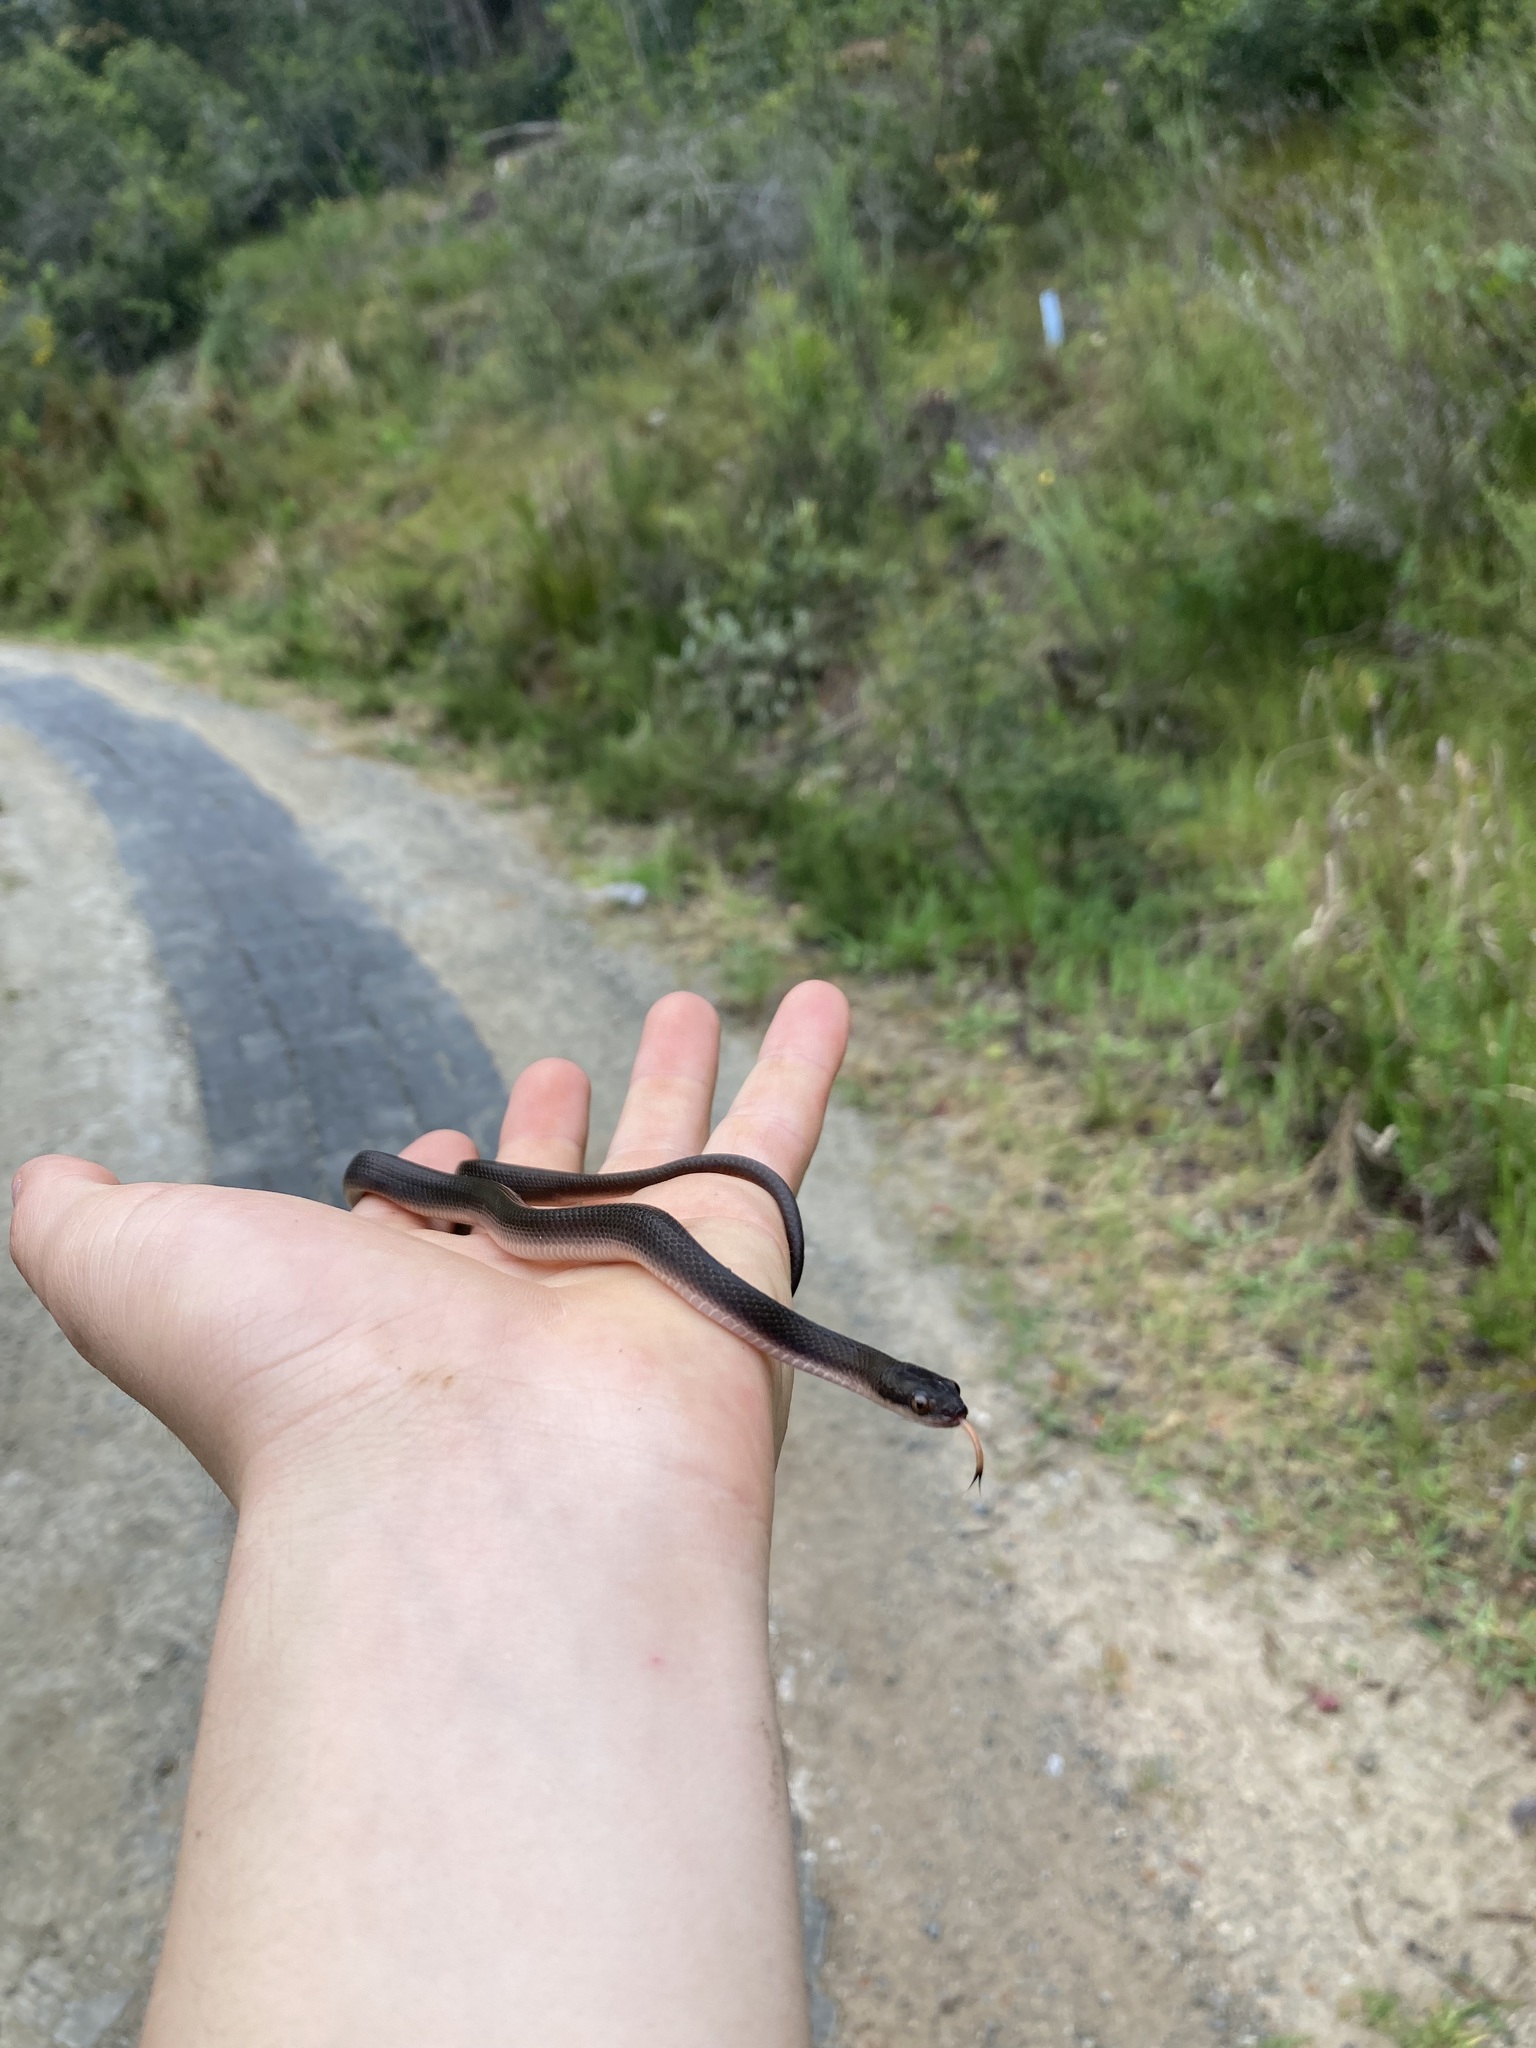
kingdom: Animalia
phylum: Chordata
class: Squamata
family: Lamprophiidae
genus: Lycodonomorphus
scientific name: Lycodonomorphus rufulus
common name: Brown water snake
